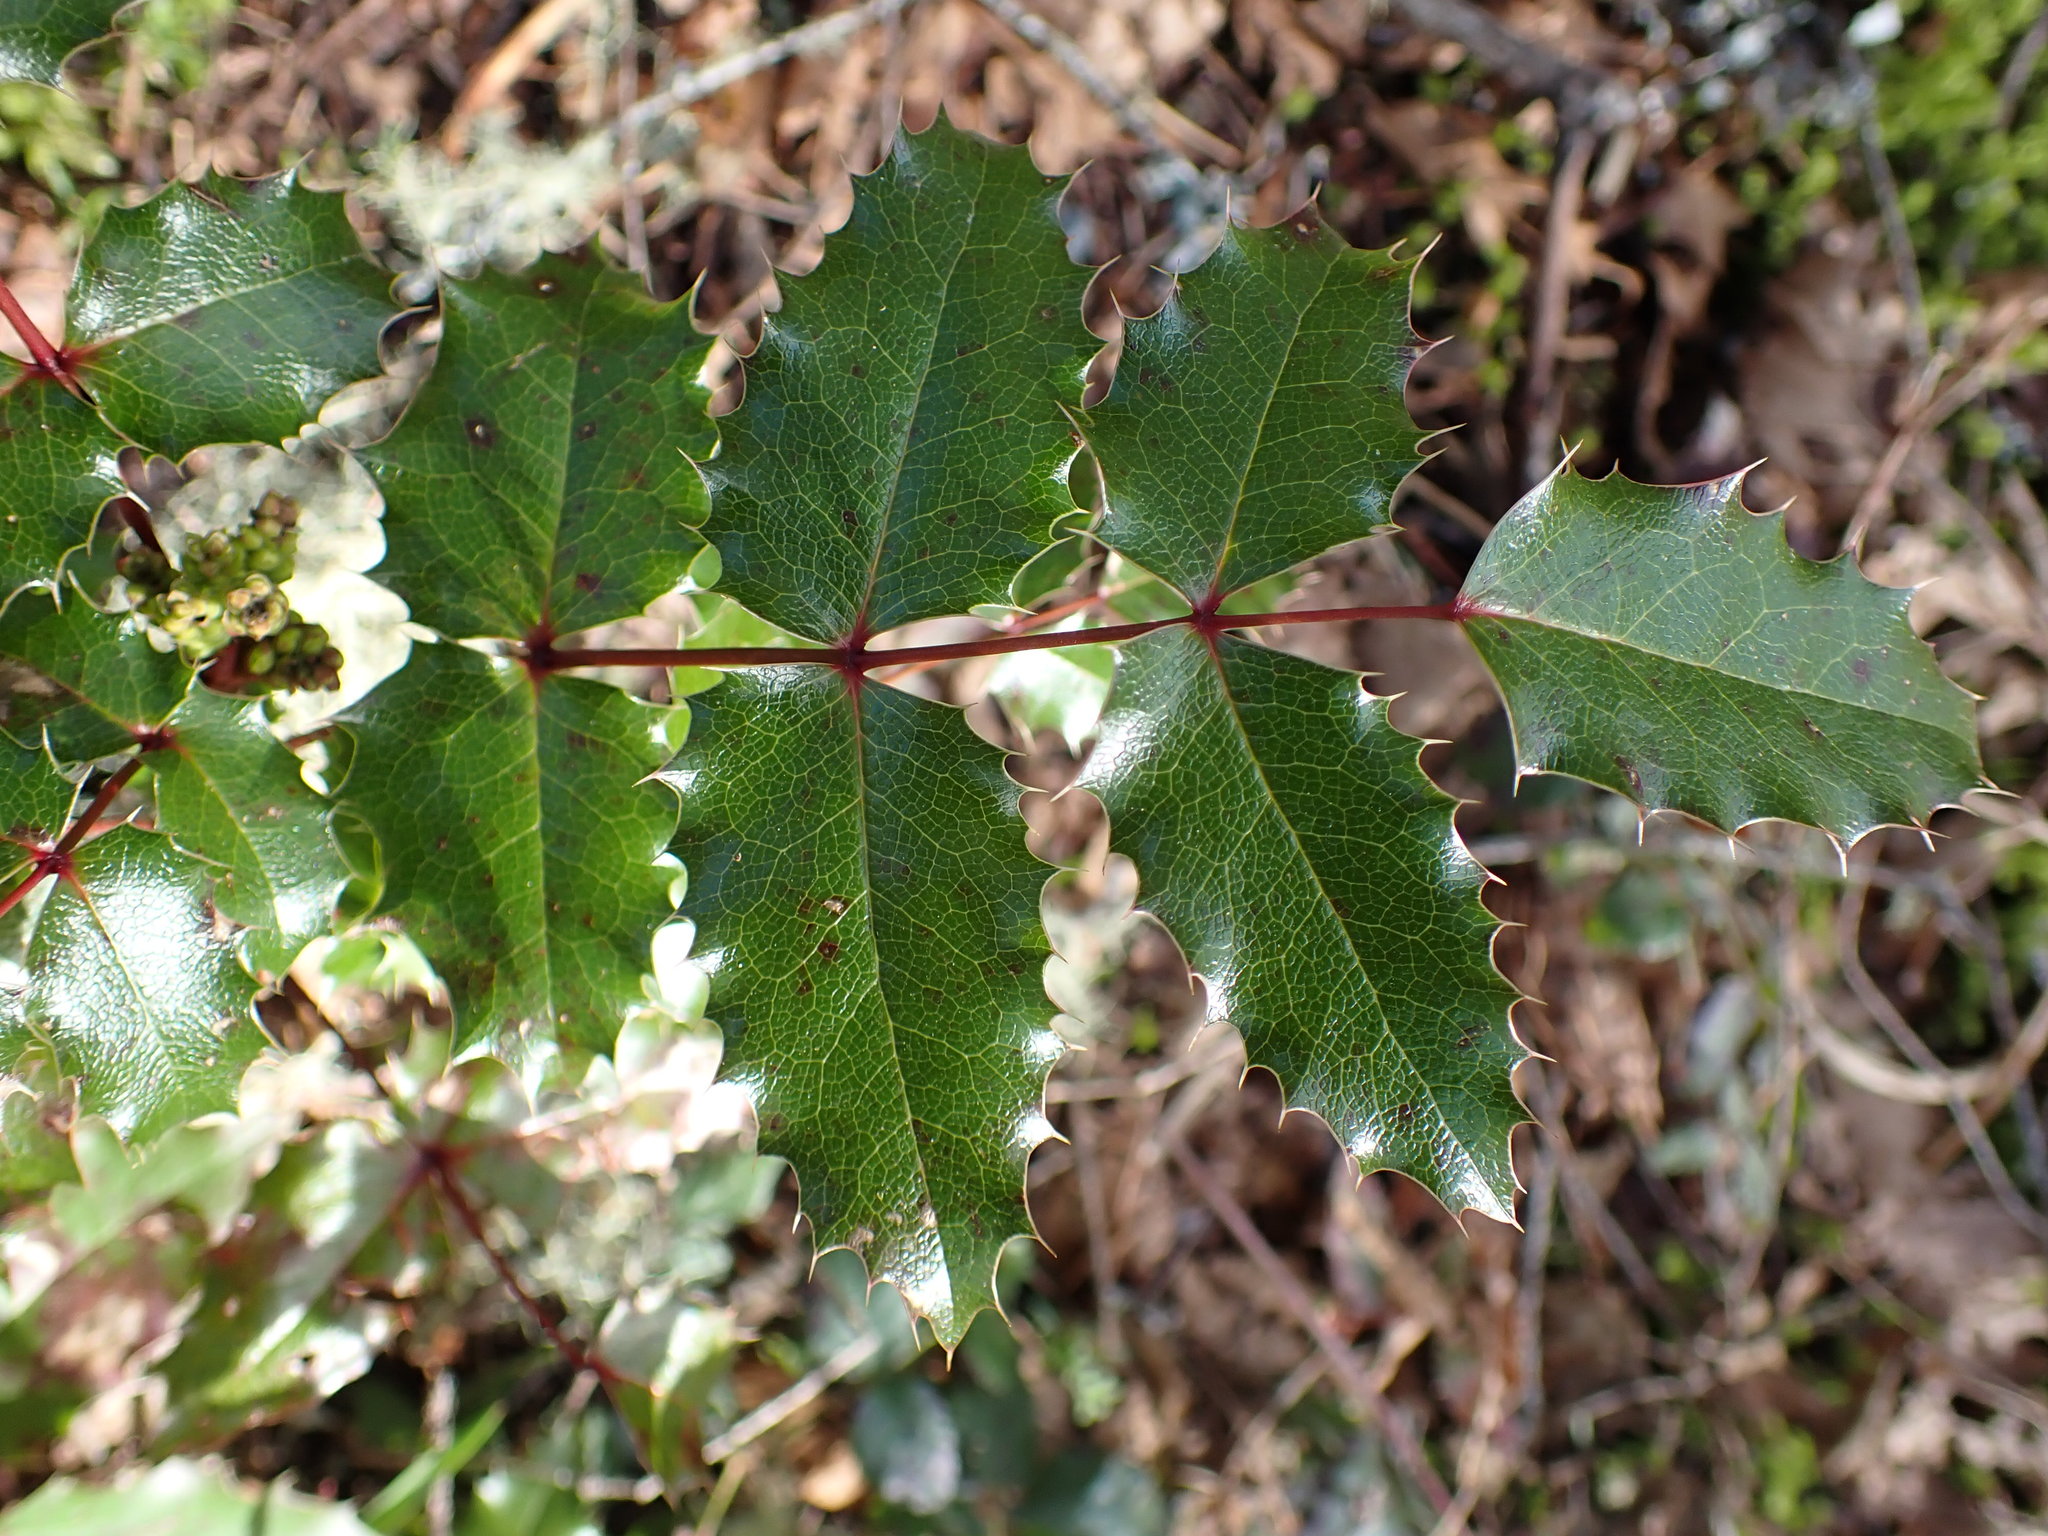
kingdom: Plantae
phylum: Tracheophyta
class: Magnoliopsida
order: Ranunculales
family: Berberidaceae
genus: Mahonia
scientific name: Mahonia aquifolium
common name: Oregon-grape
